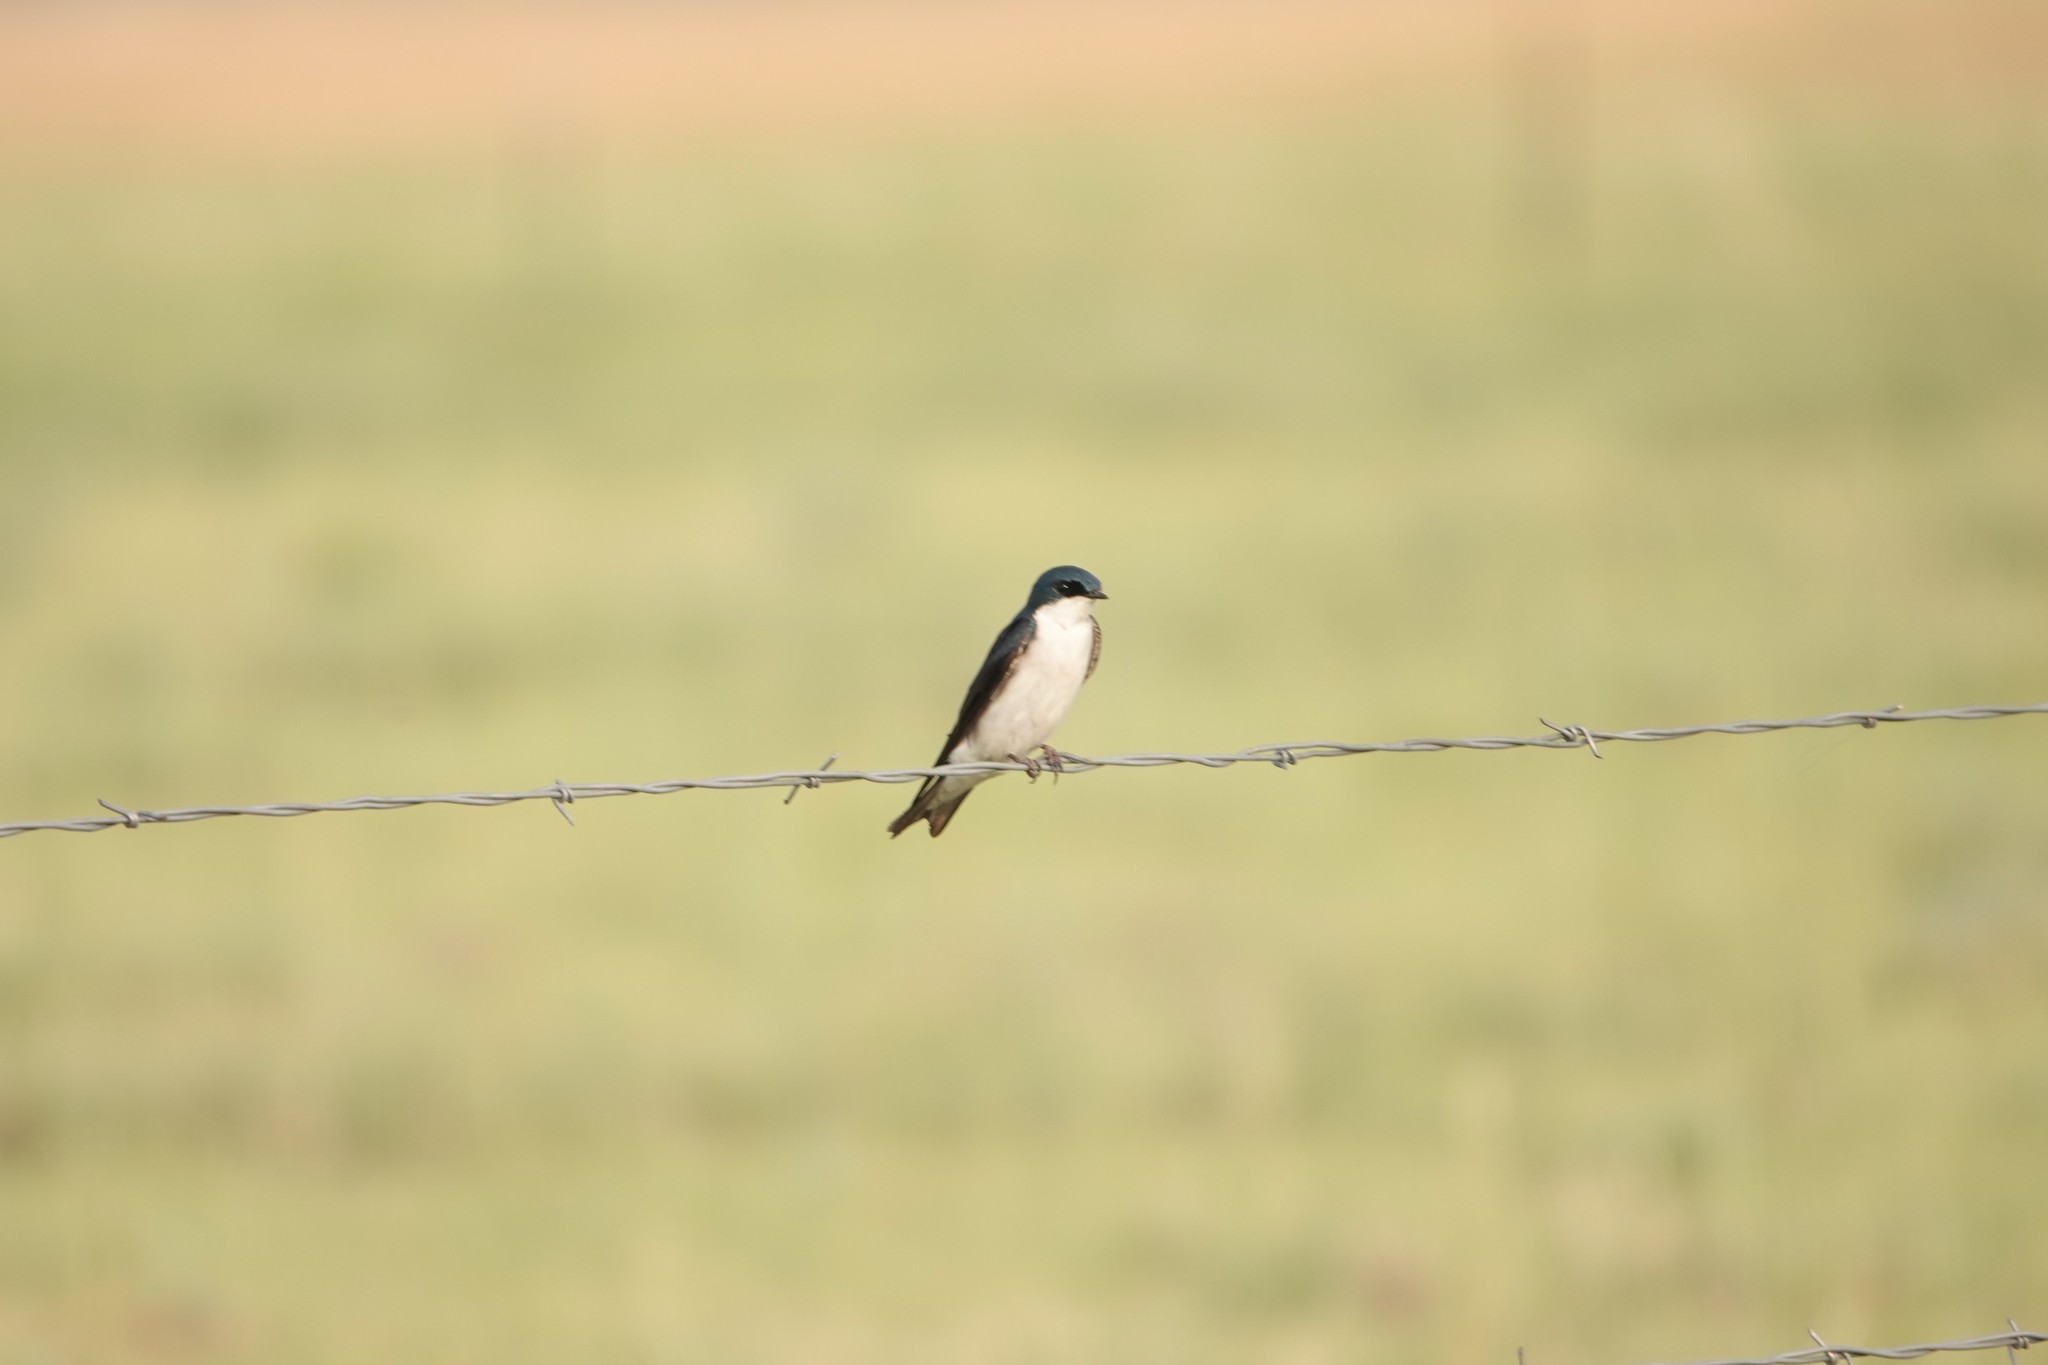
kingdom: Animalia
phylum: Chordata
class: Aves
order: Passeriformes
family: Hirundinidae
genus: Tachycineta
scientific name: Tachycineta bicolor
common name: Tree swallow
